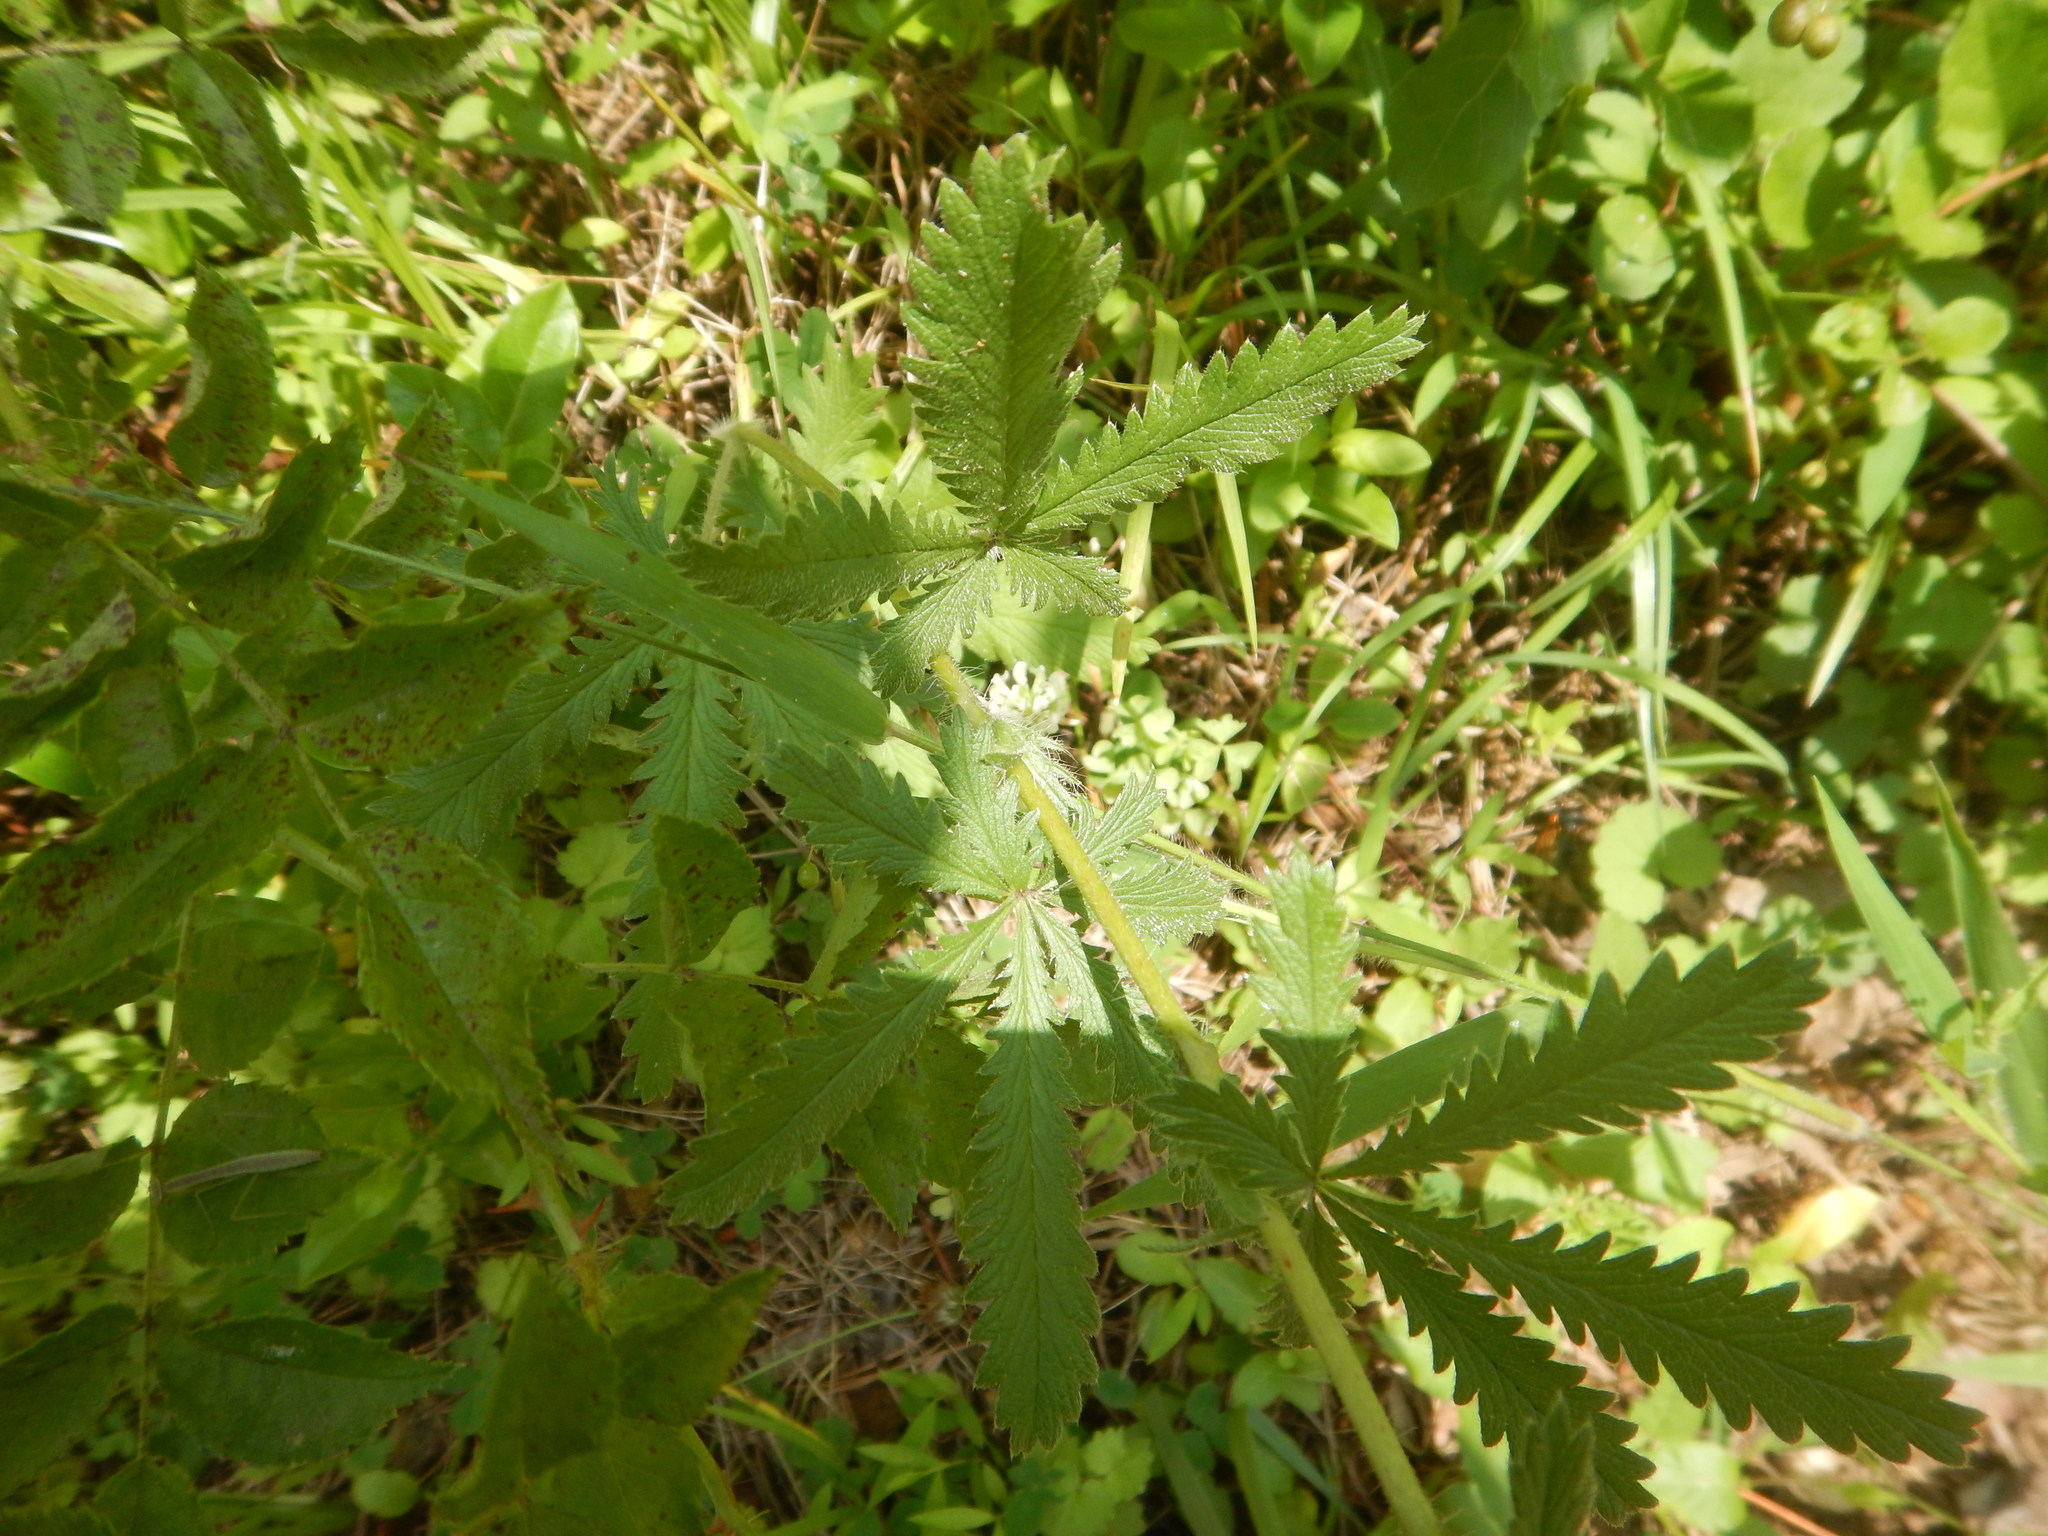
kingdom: Plantae
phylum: Tracheophyta
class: Magnoliopsida
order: Rosales
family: Rosaceae
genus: Potentilla
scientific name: Potentilla recta
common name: Sulphur cinquefoil
